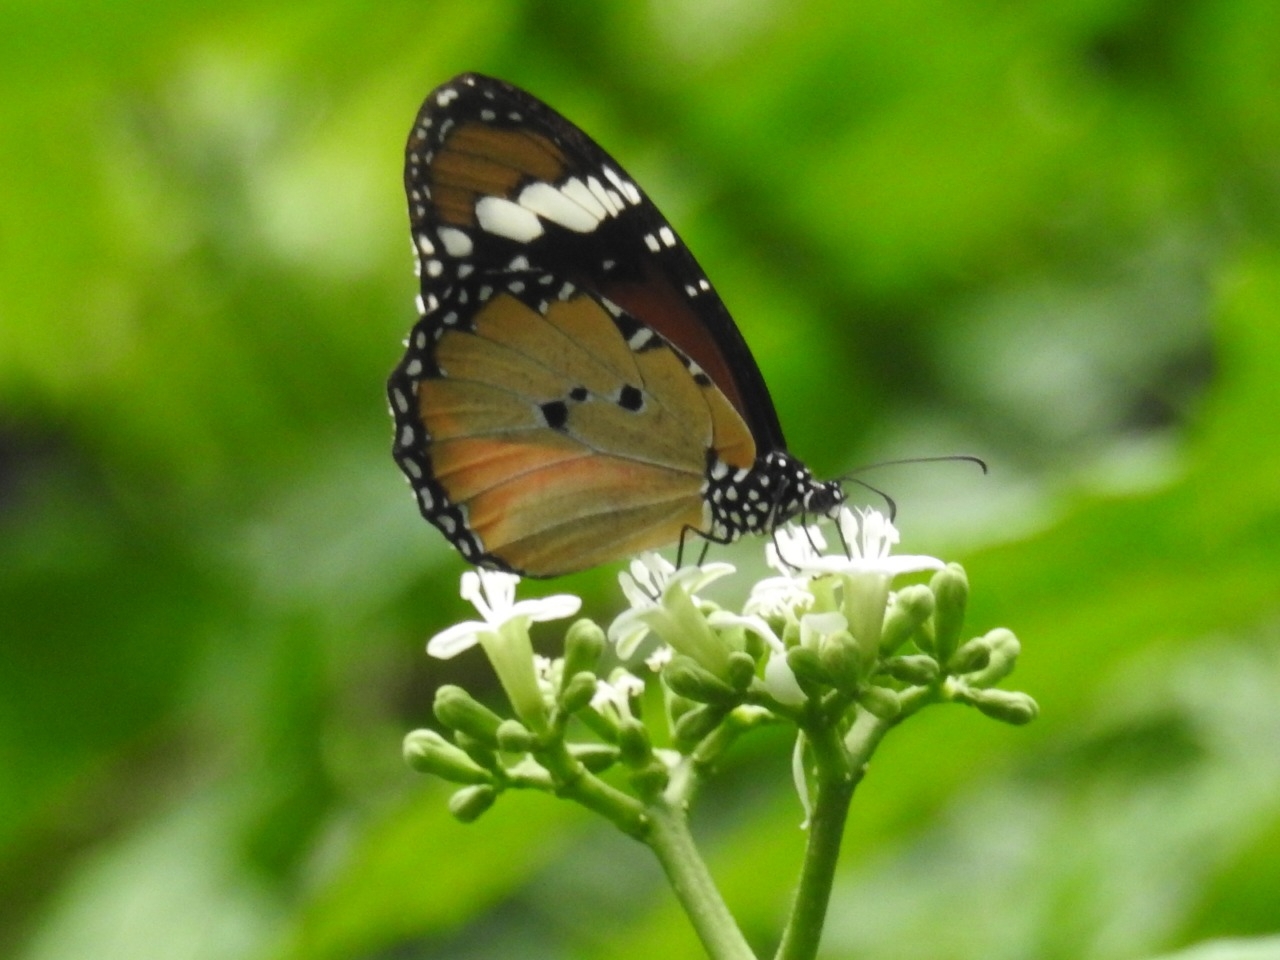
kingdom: Animalia
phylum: Arthropoda
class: Insecta
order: Lepidoptera
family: Nymphalidae
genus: Danaus
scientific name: Danaus chrysippus
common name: Plain tiger
